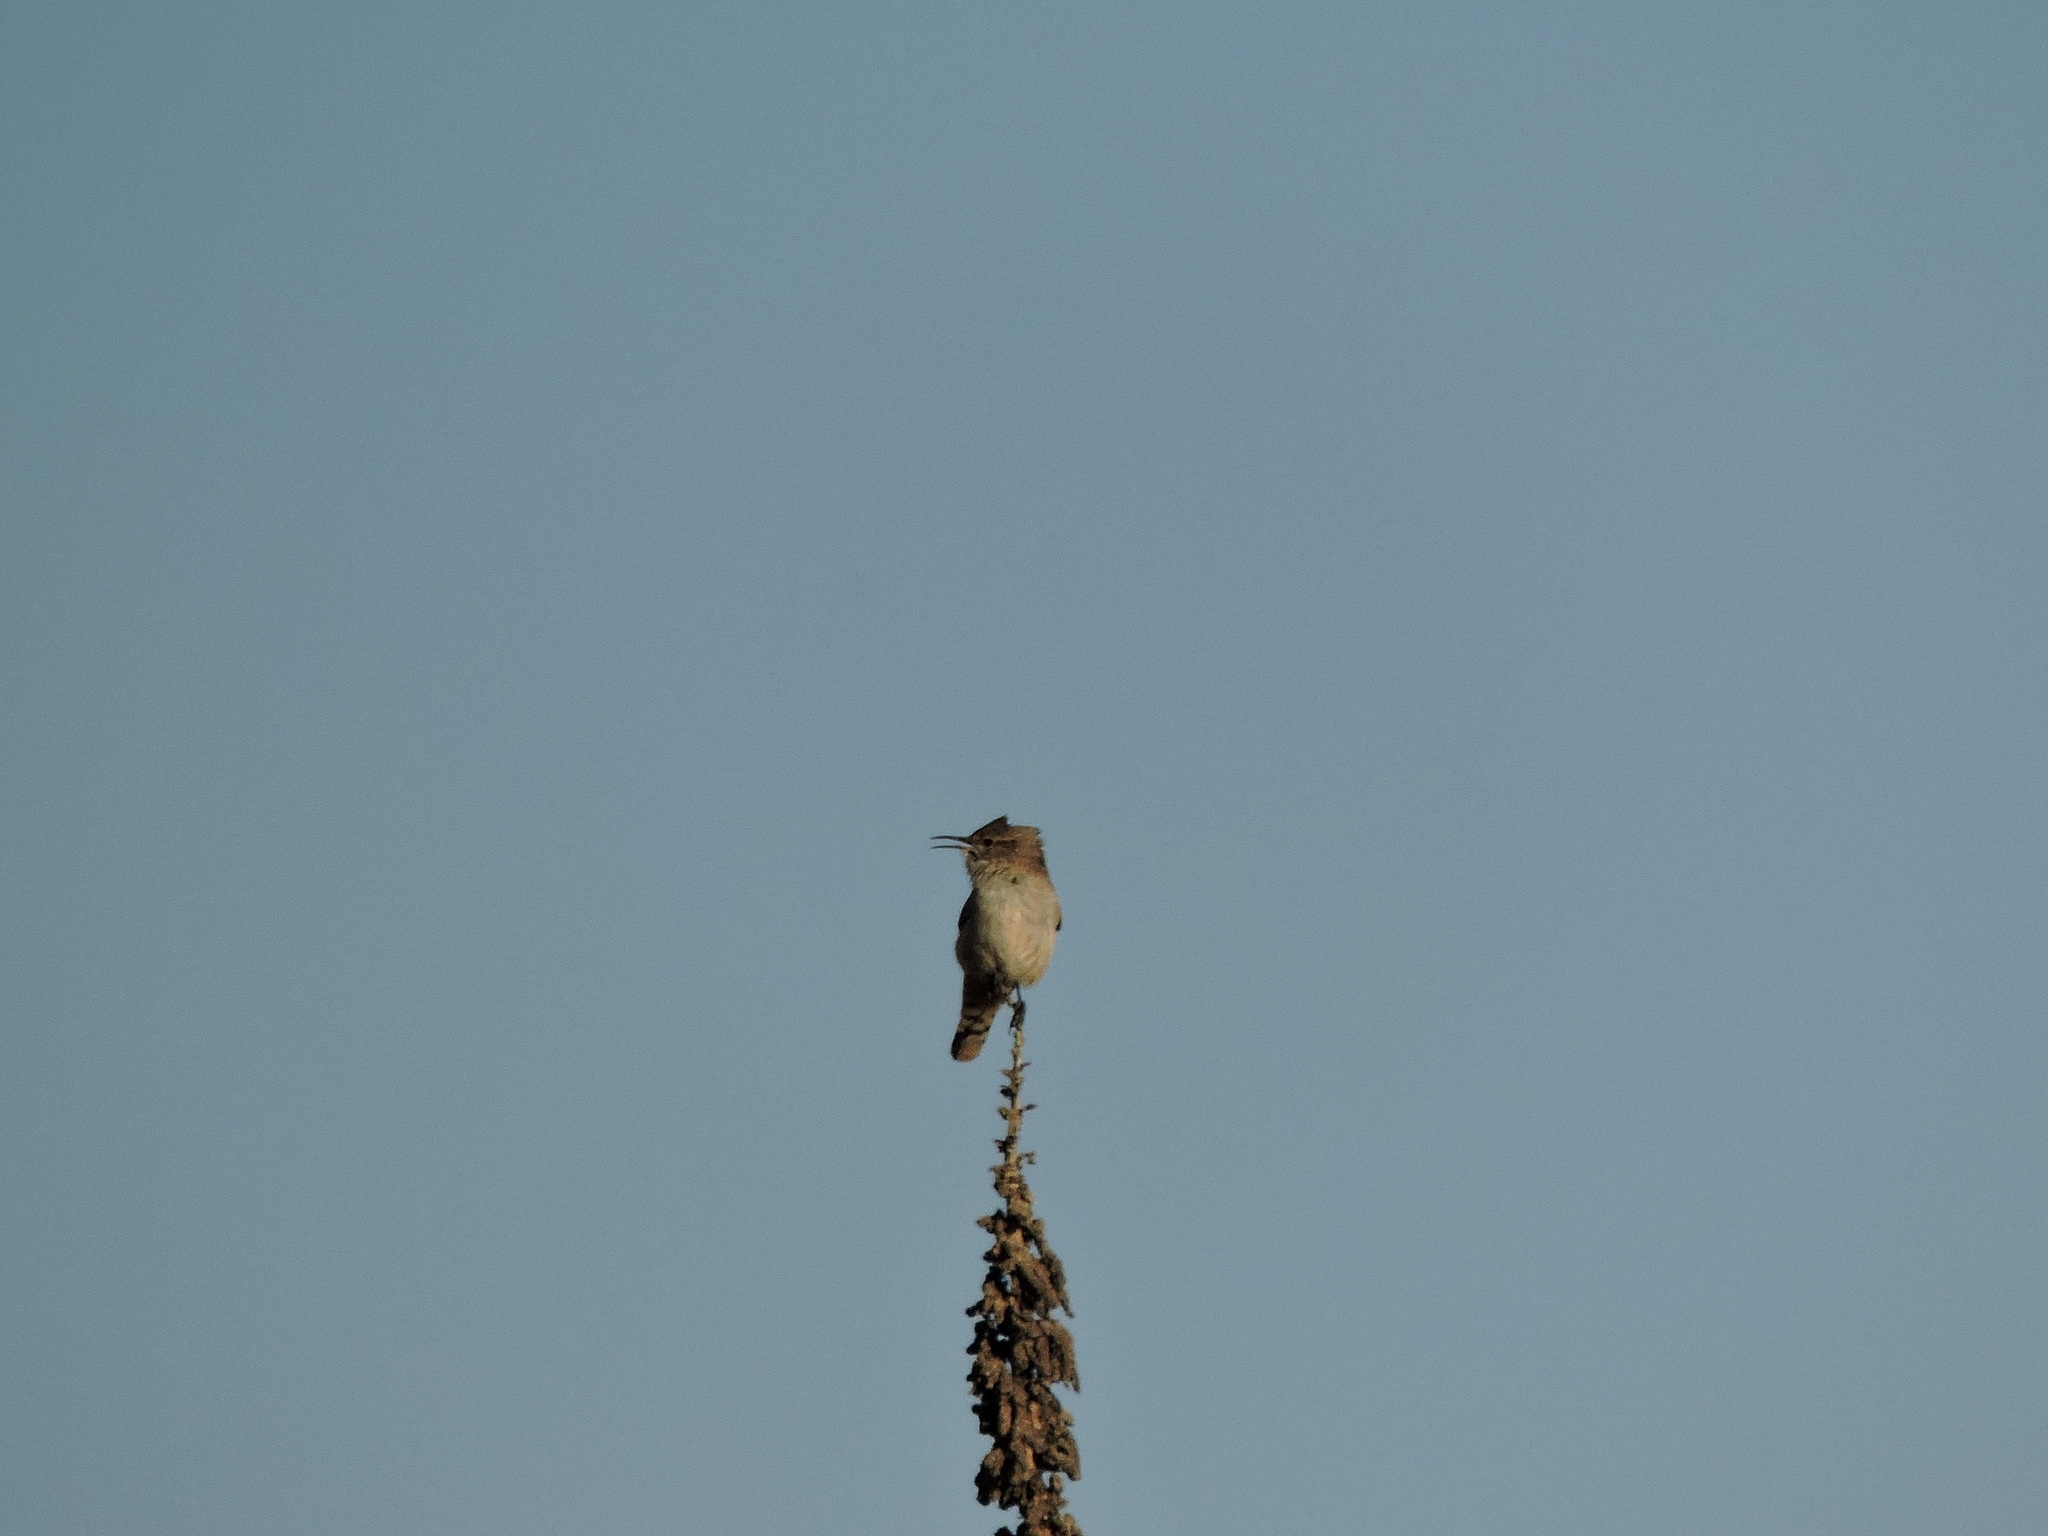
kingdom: Animalia
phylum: Chordata
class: Aves
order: Passeriformes
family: Troglodytidae
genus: Salpinctes
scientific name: Salpinctes obsoletus
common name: Rock wren
